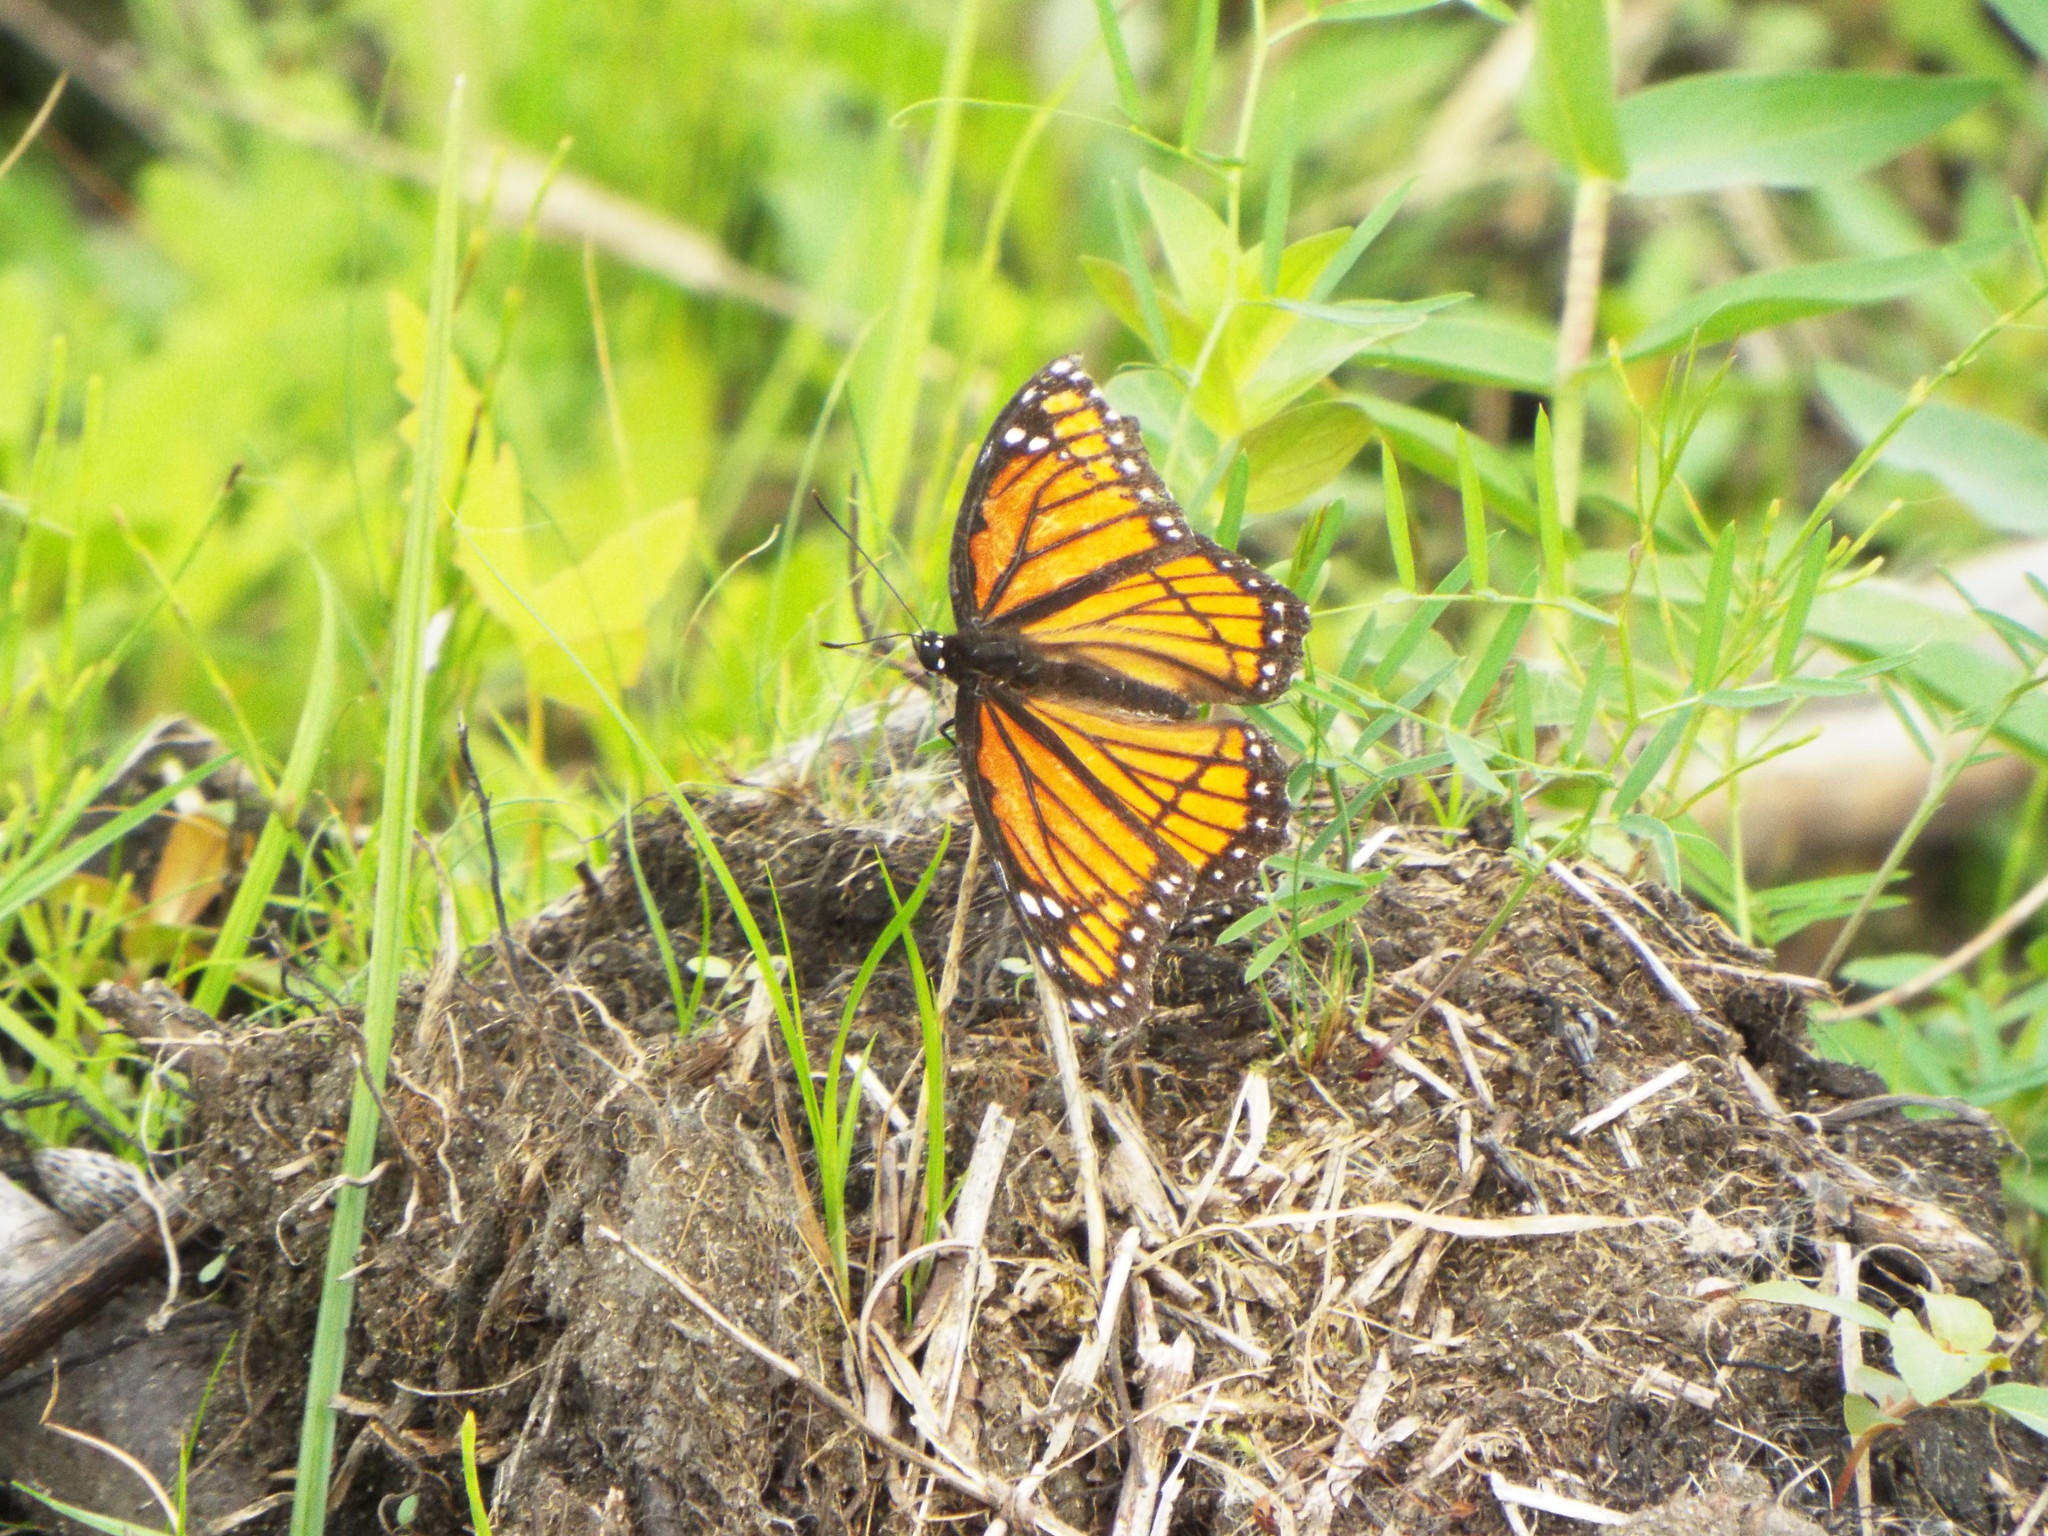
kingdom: Animalia
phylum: Arthropoda
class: Insecta
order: Lepidoptera
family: Nymphalidae
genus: Limenitis
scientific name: Limenitis archippus
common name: Viceroy
